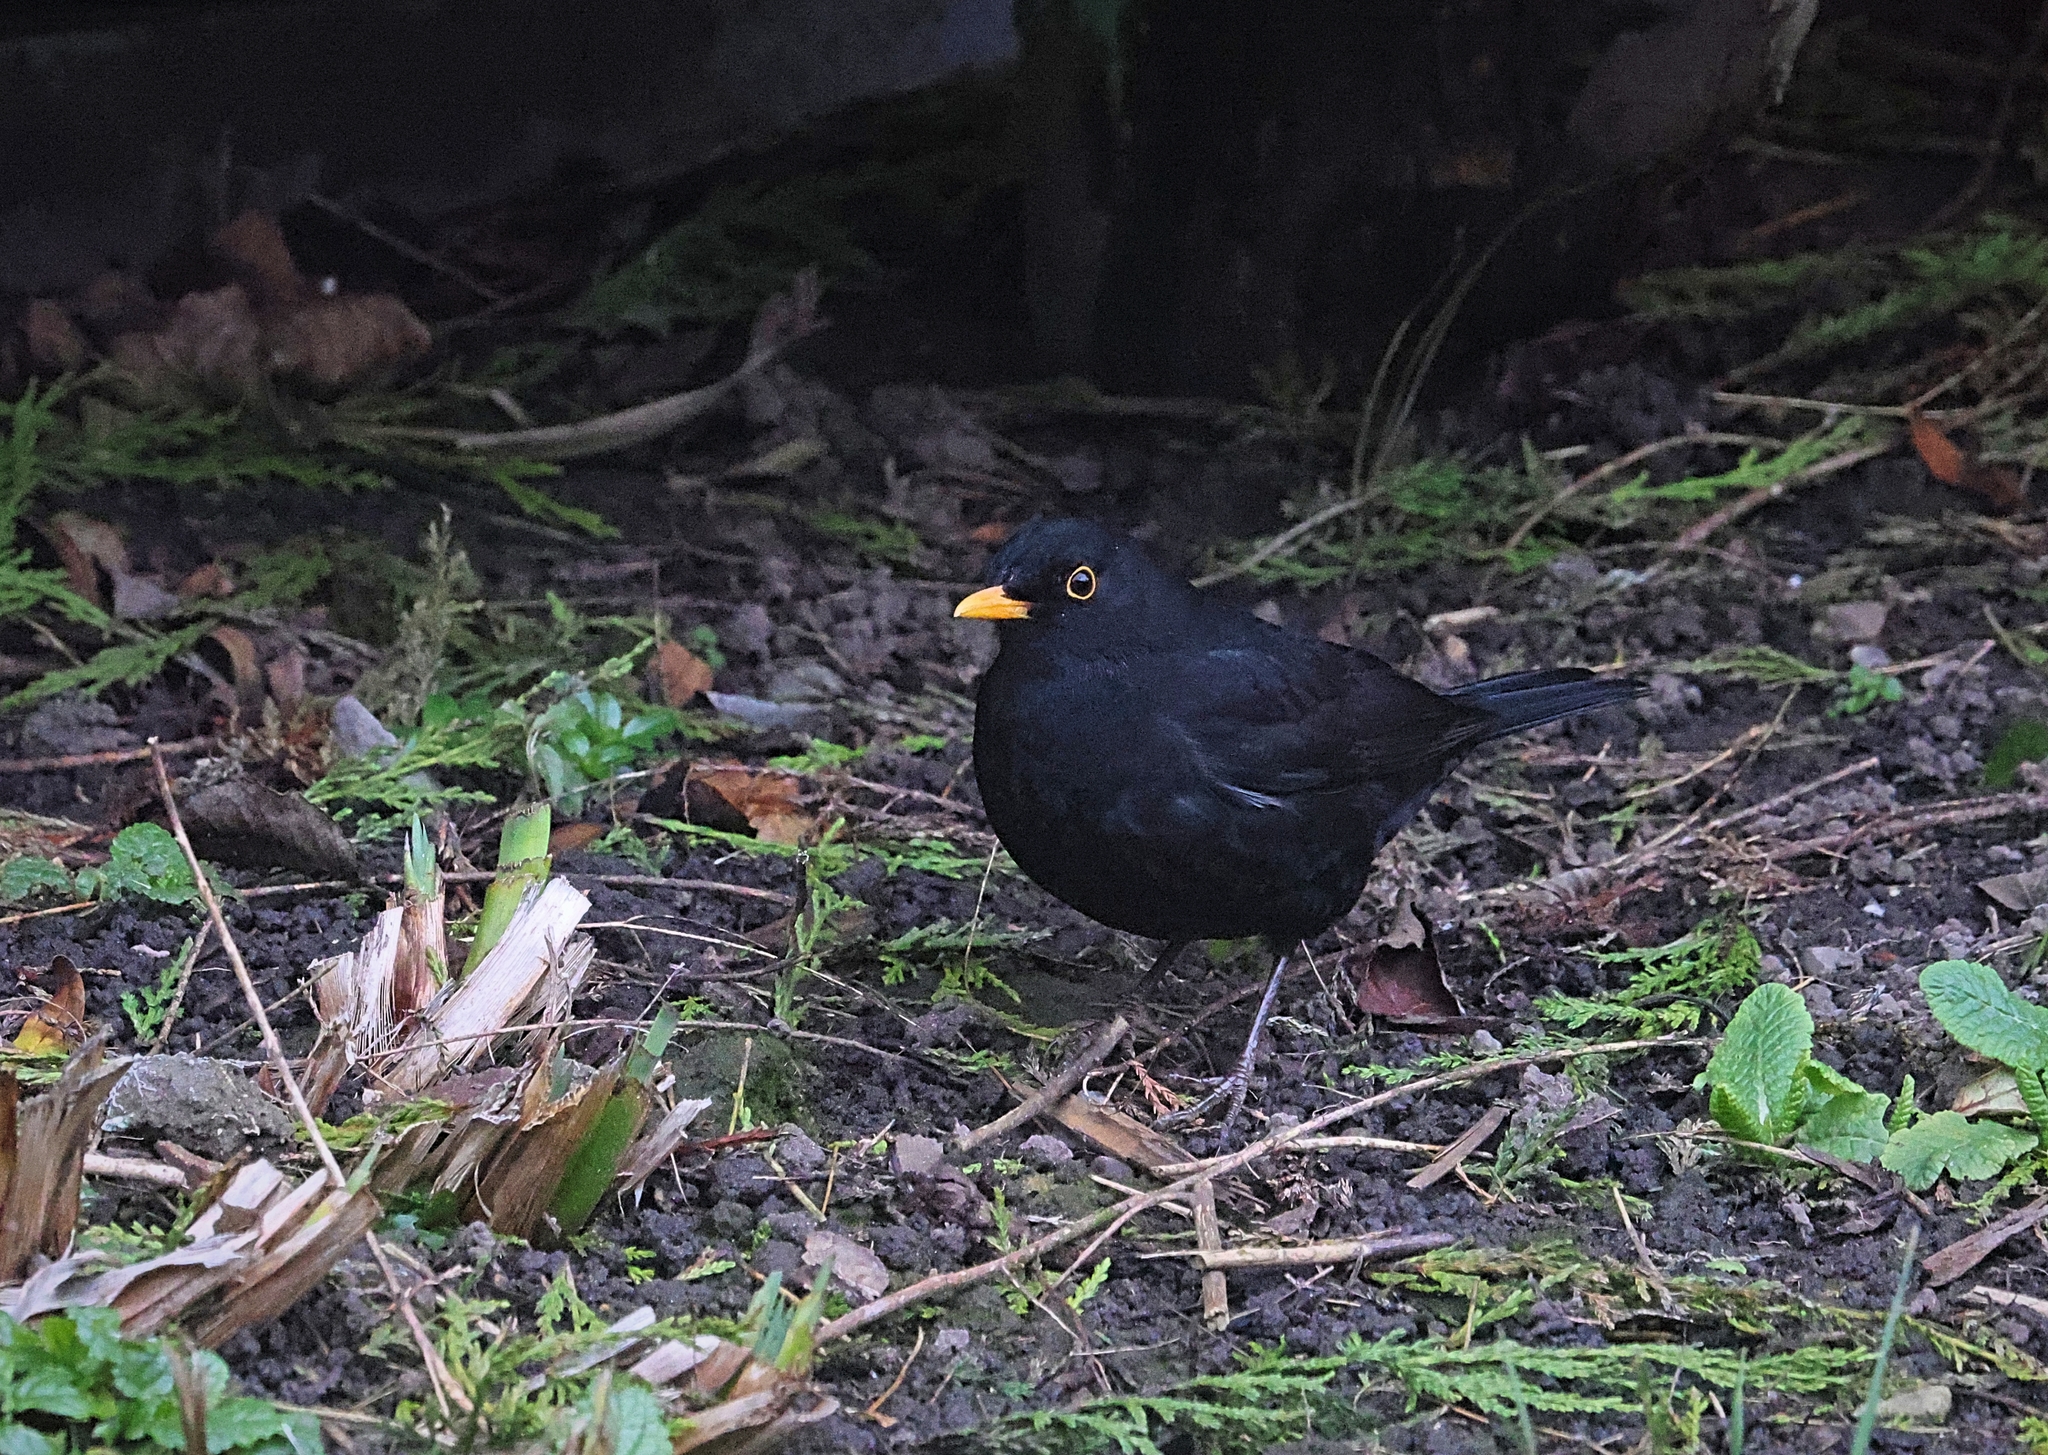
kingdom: Animalia
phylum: Chordata
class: Aves
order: Passeriformes
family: Turdidae
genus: Turdus
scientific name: Turdus merula
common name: Common blackbird
